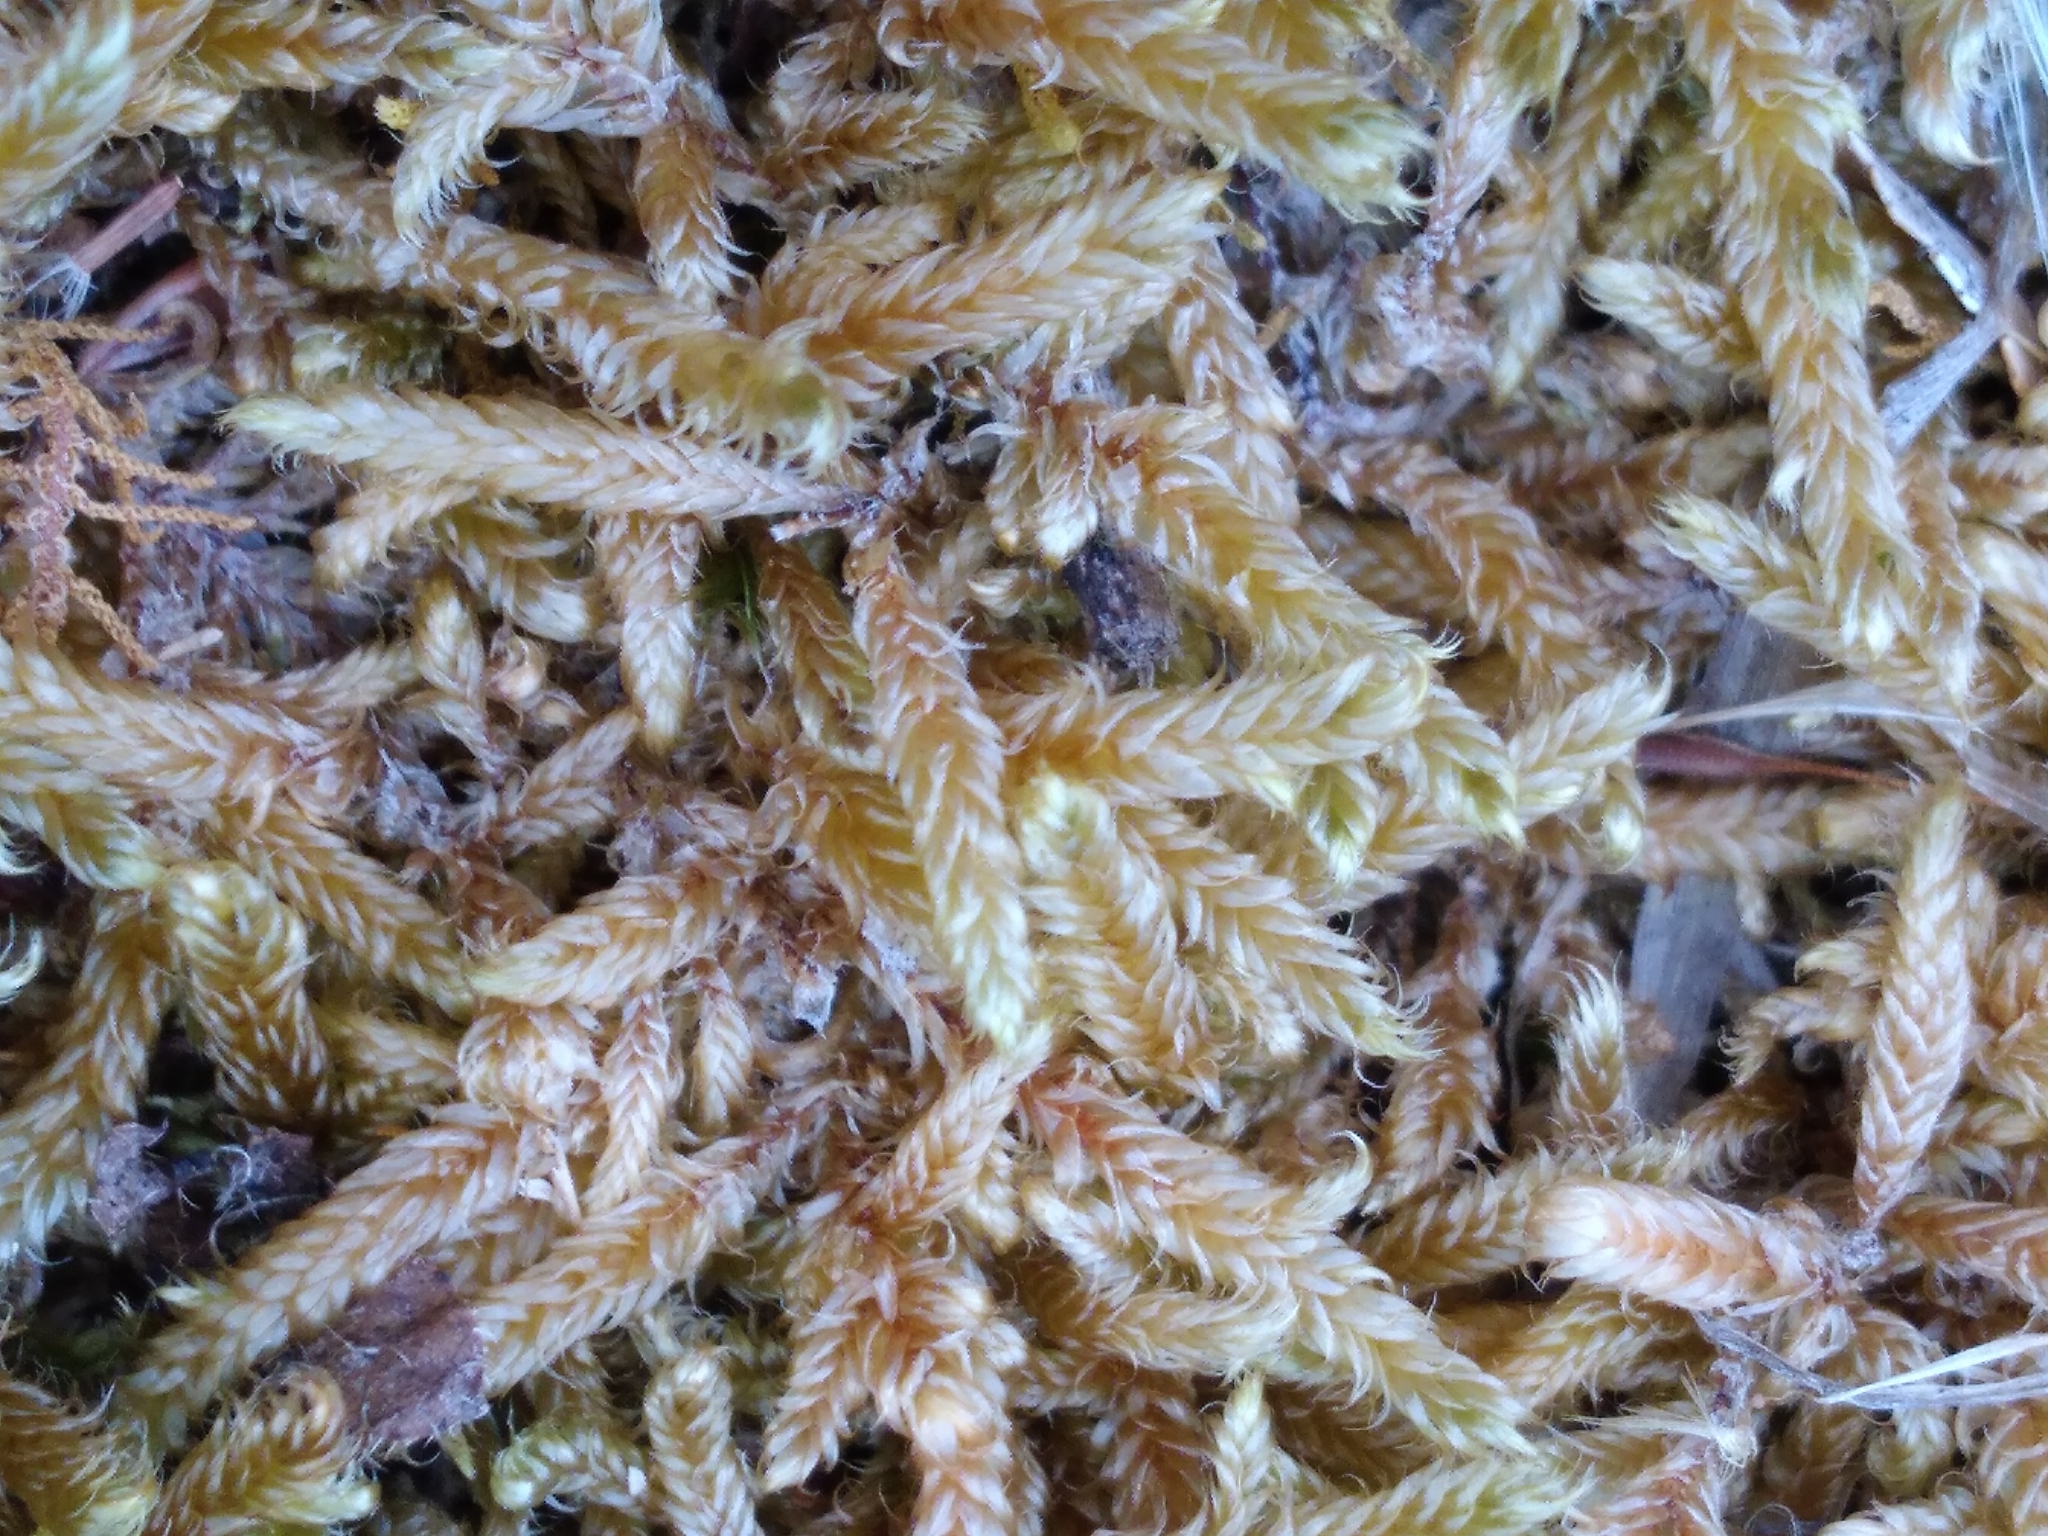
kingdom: Plantae
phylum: Bryophyta
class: Bryopsida
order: Hypnales
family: Hypnaceae
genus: Hypnum
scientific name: Hypnum cupressiforme
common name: Cypress-leaved plait-moss
